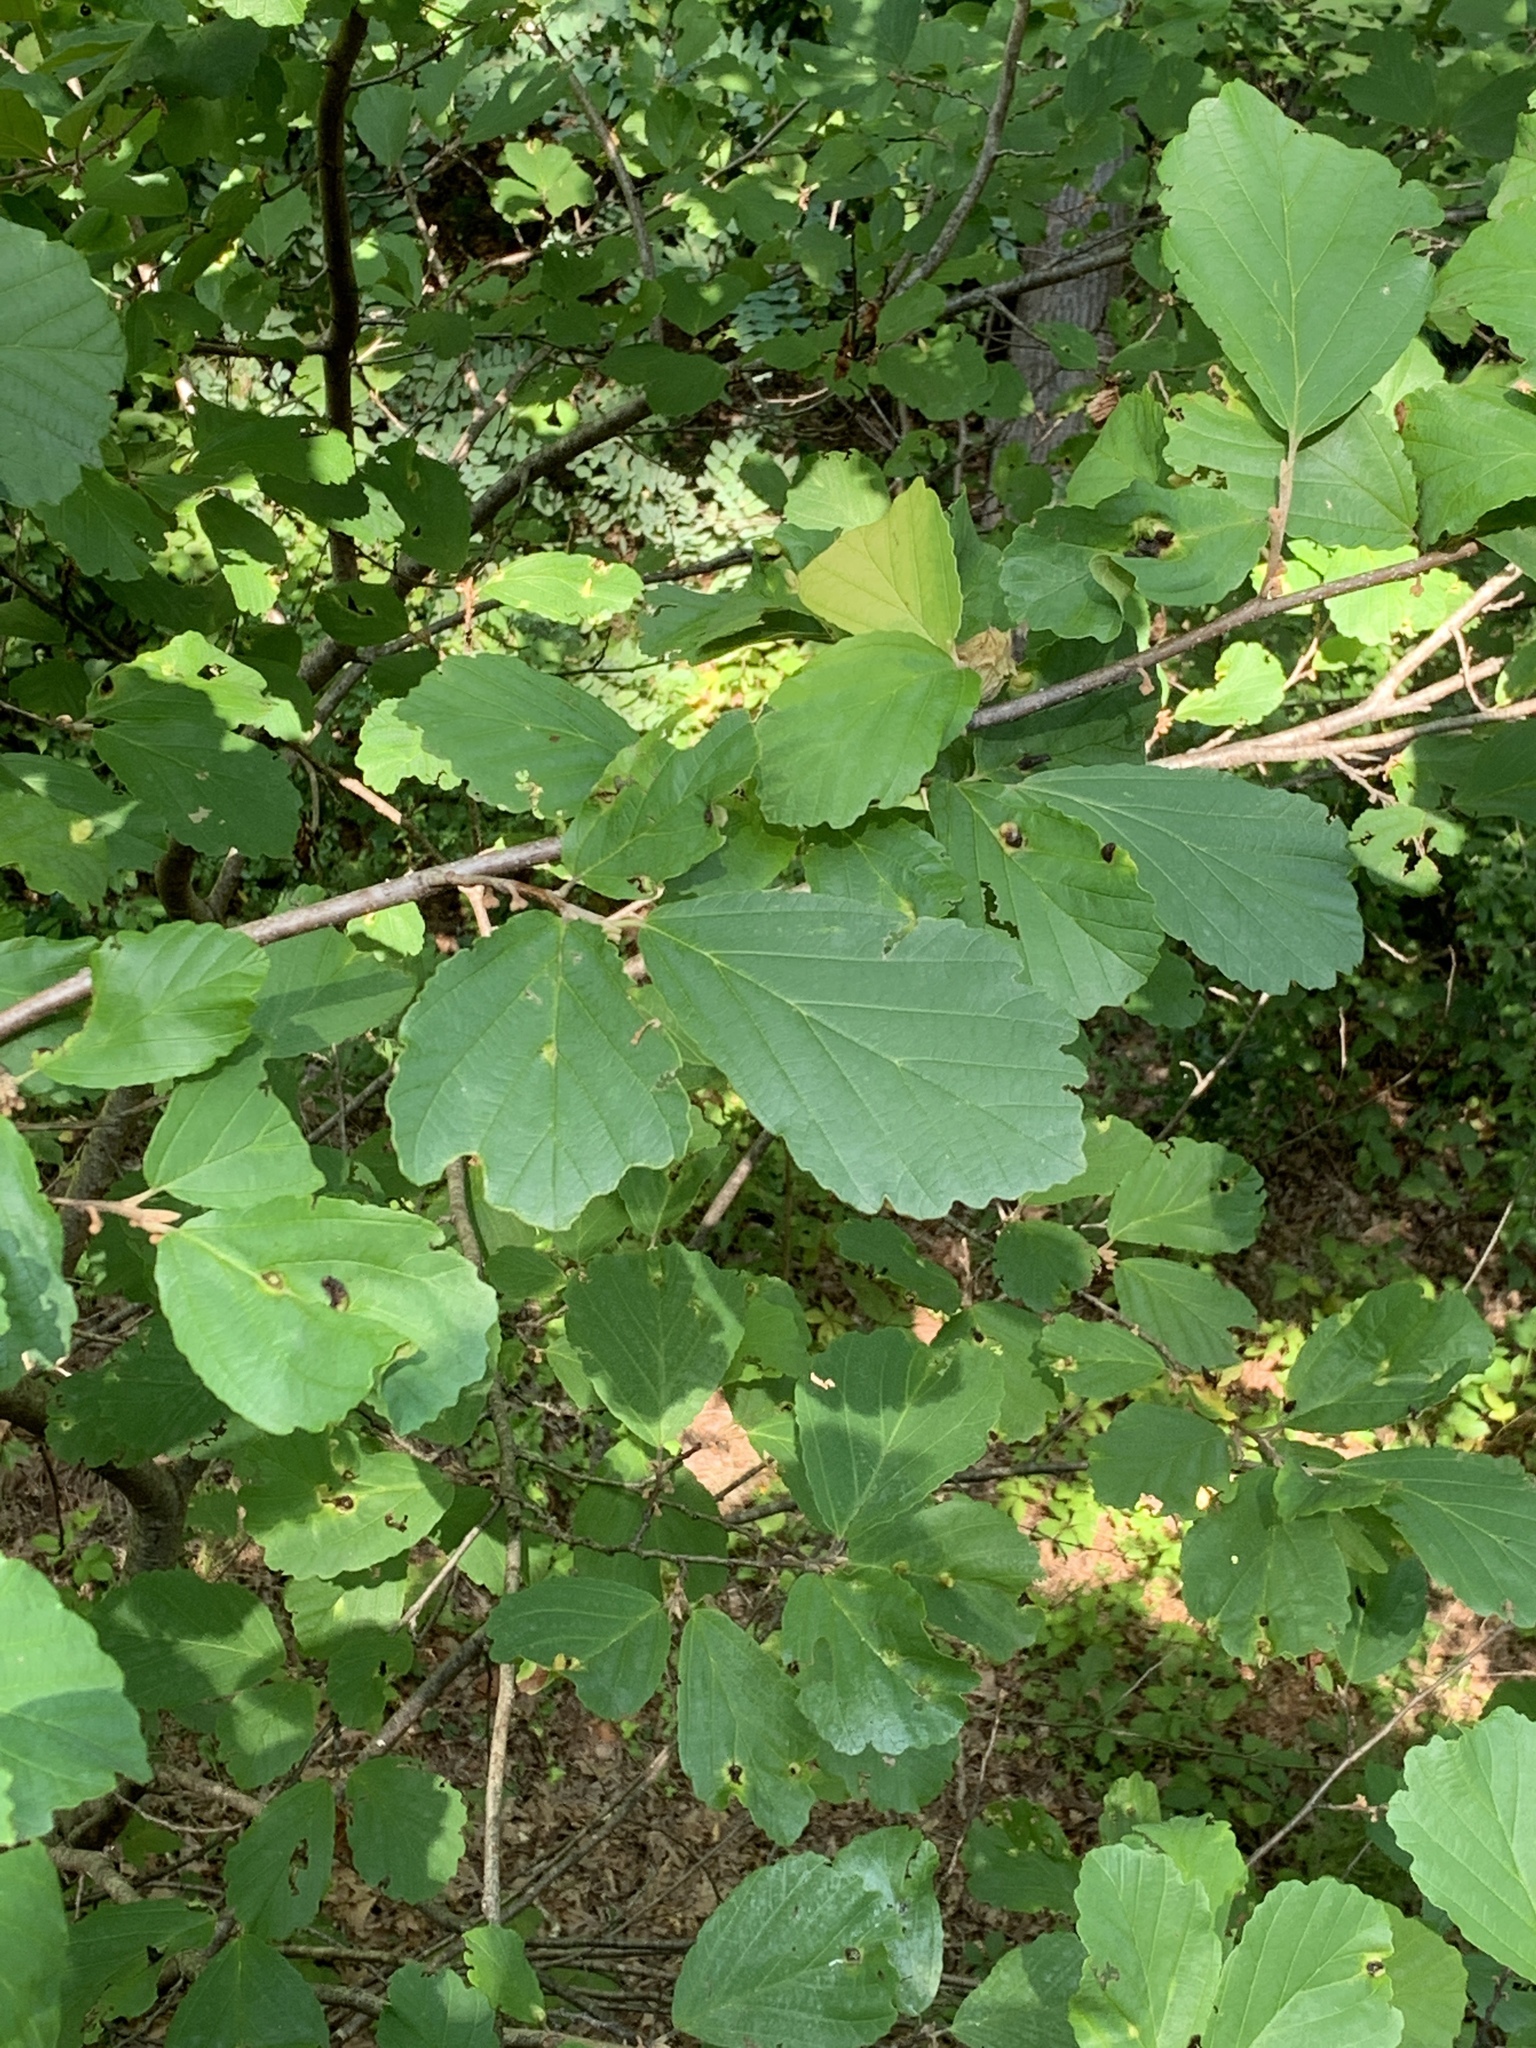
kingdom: Plantae
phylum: Tracheophyta
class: Magnoliopsida
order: Saxifragales
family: Hamamelidaceae
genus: Hamamelis
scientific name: Hamamelis virginiana
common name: Witch-hazel
